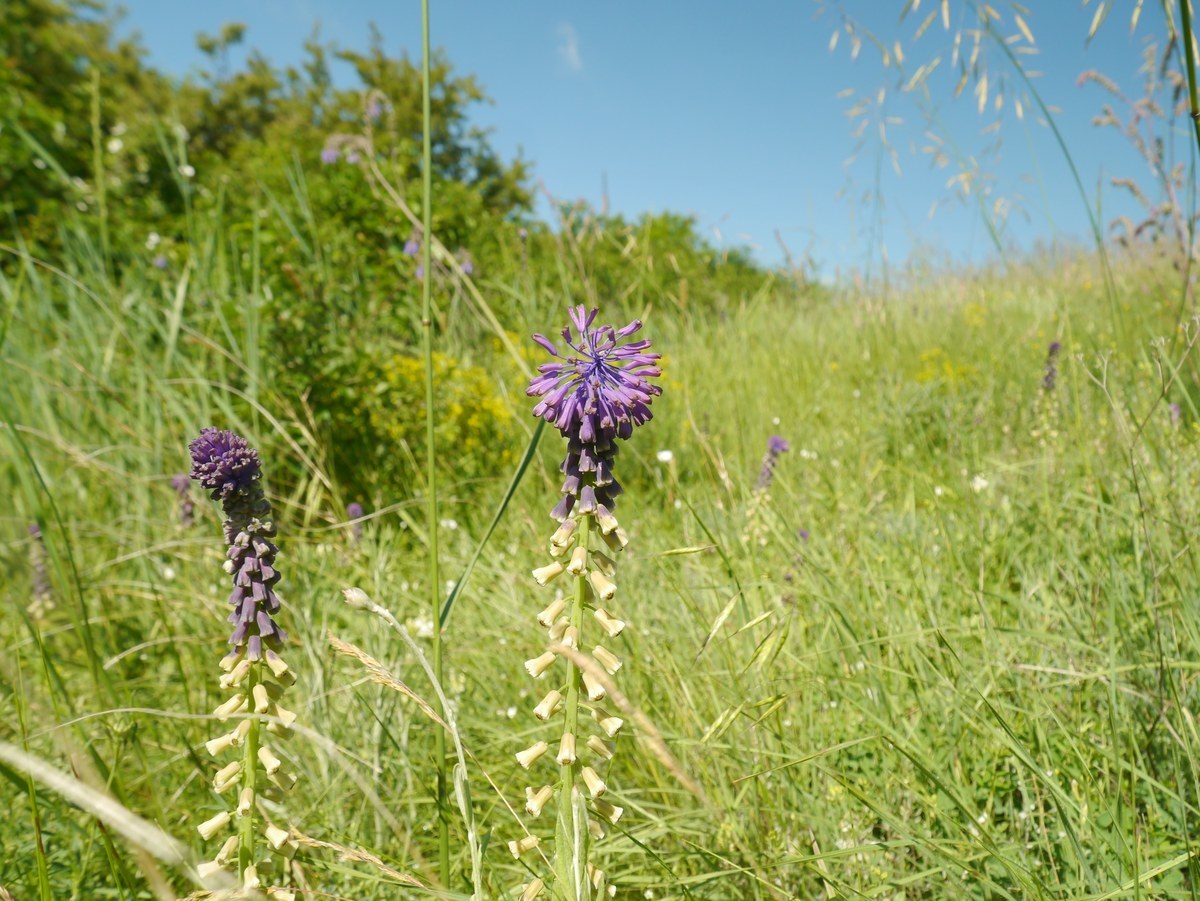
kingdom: Plantae
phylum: Tracheophyta
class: Liliopsida
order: Asparagales
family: Asparagaceae
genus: Muscari
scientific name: Muscari tenuiflorum
